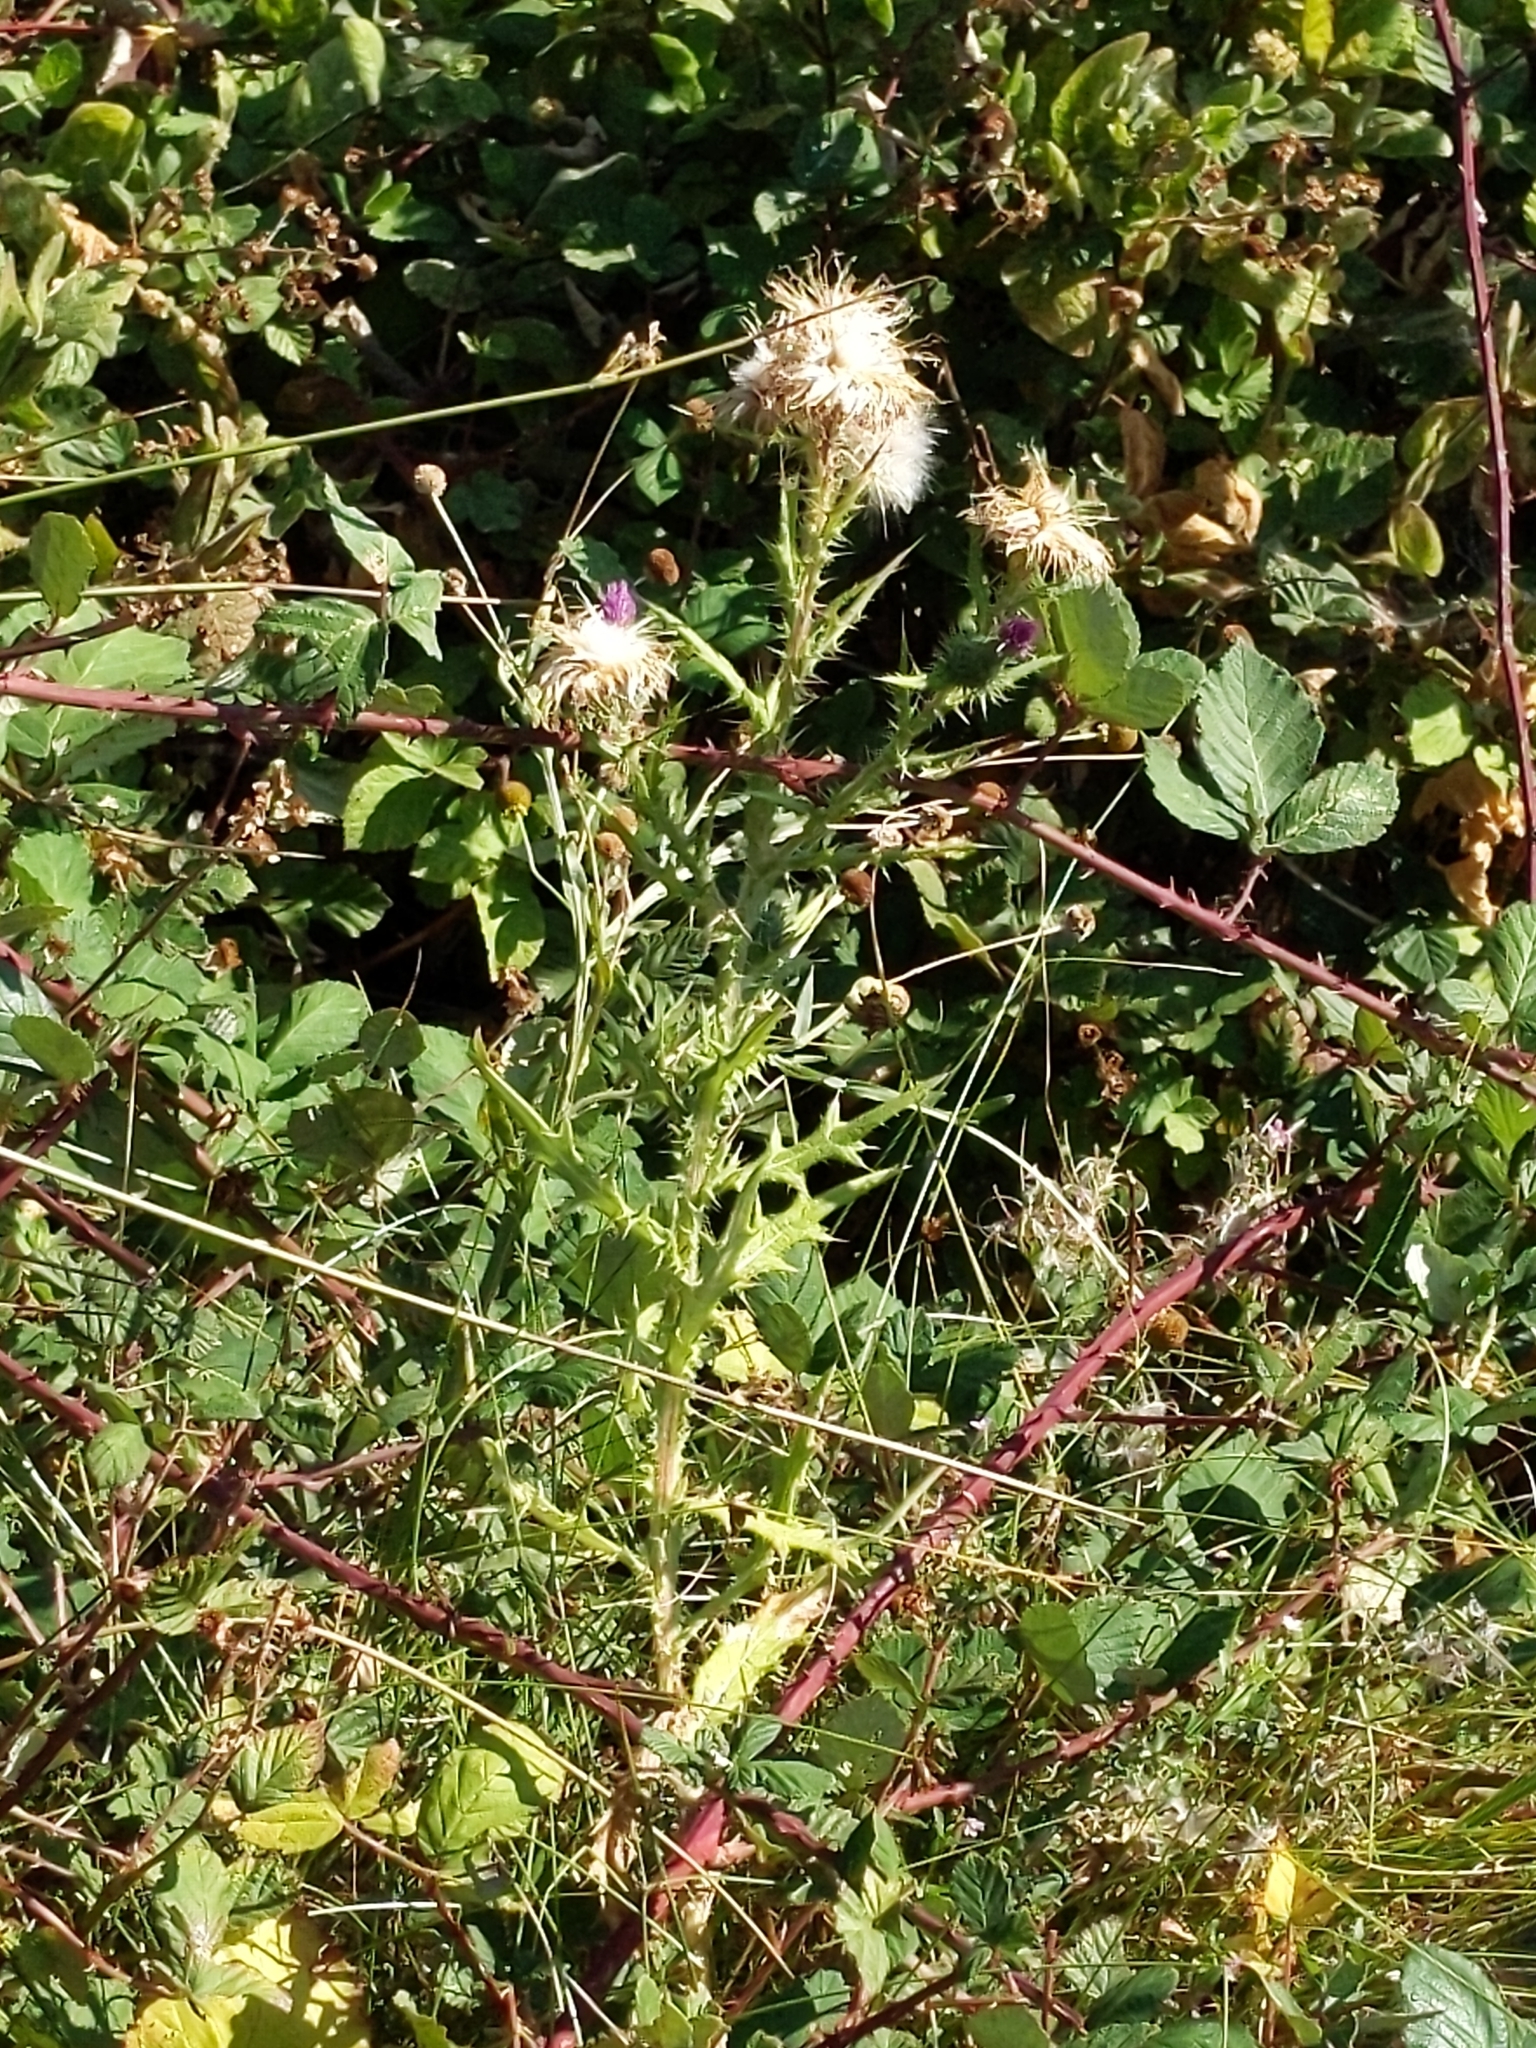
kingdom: Plantae
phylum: Tracheophyta
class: Magnoliopsida
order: Asterales
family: Asteraceae
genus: Cirsium
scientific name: Cirsium vulgare
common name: Bull thistle
